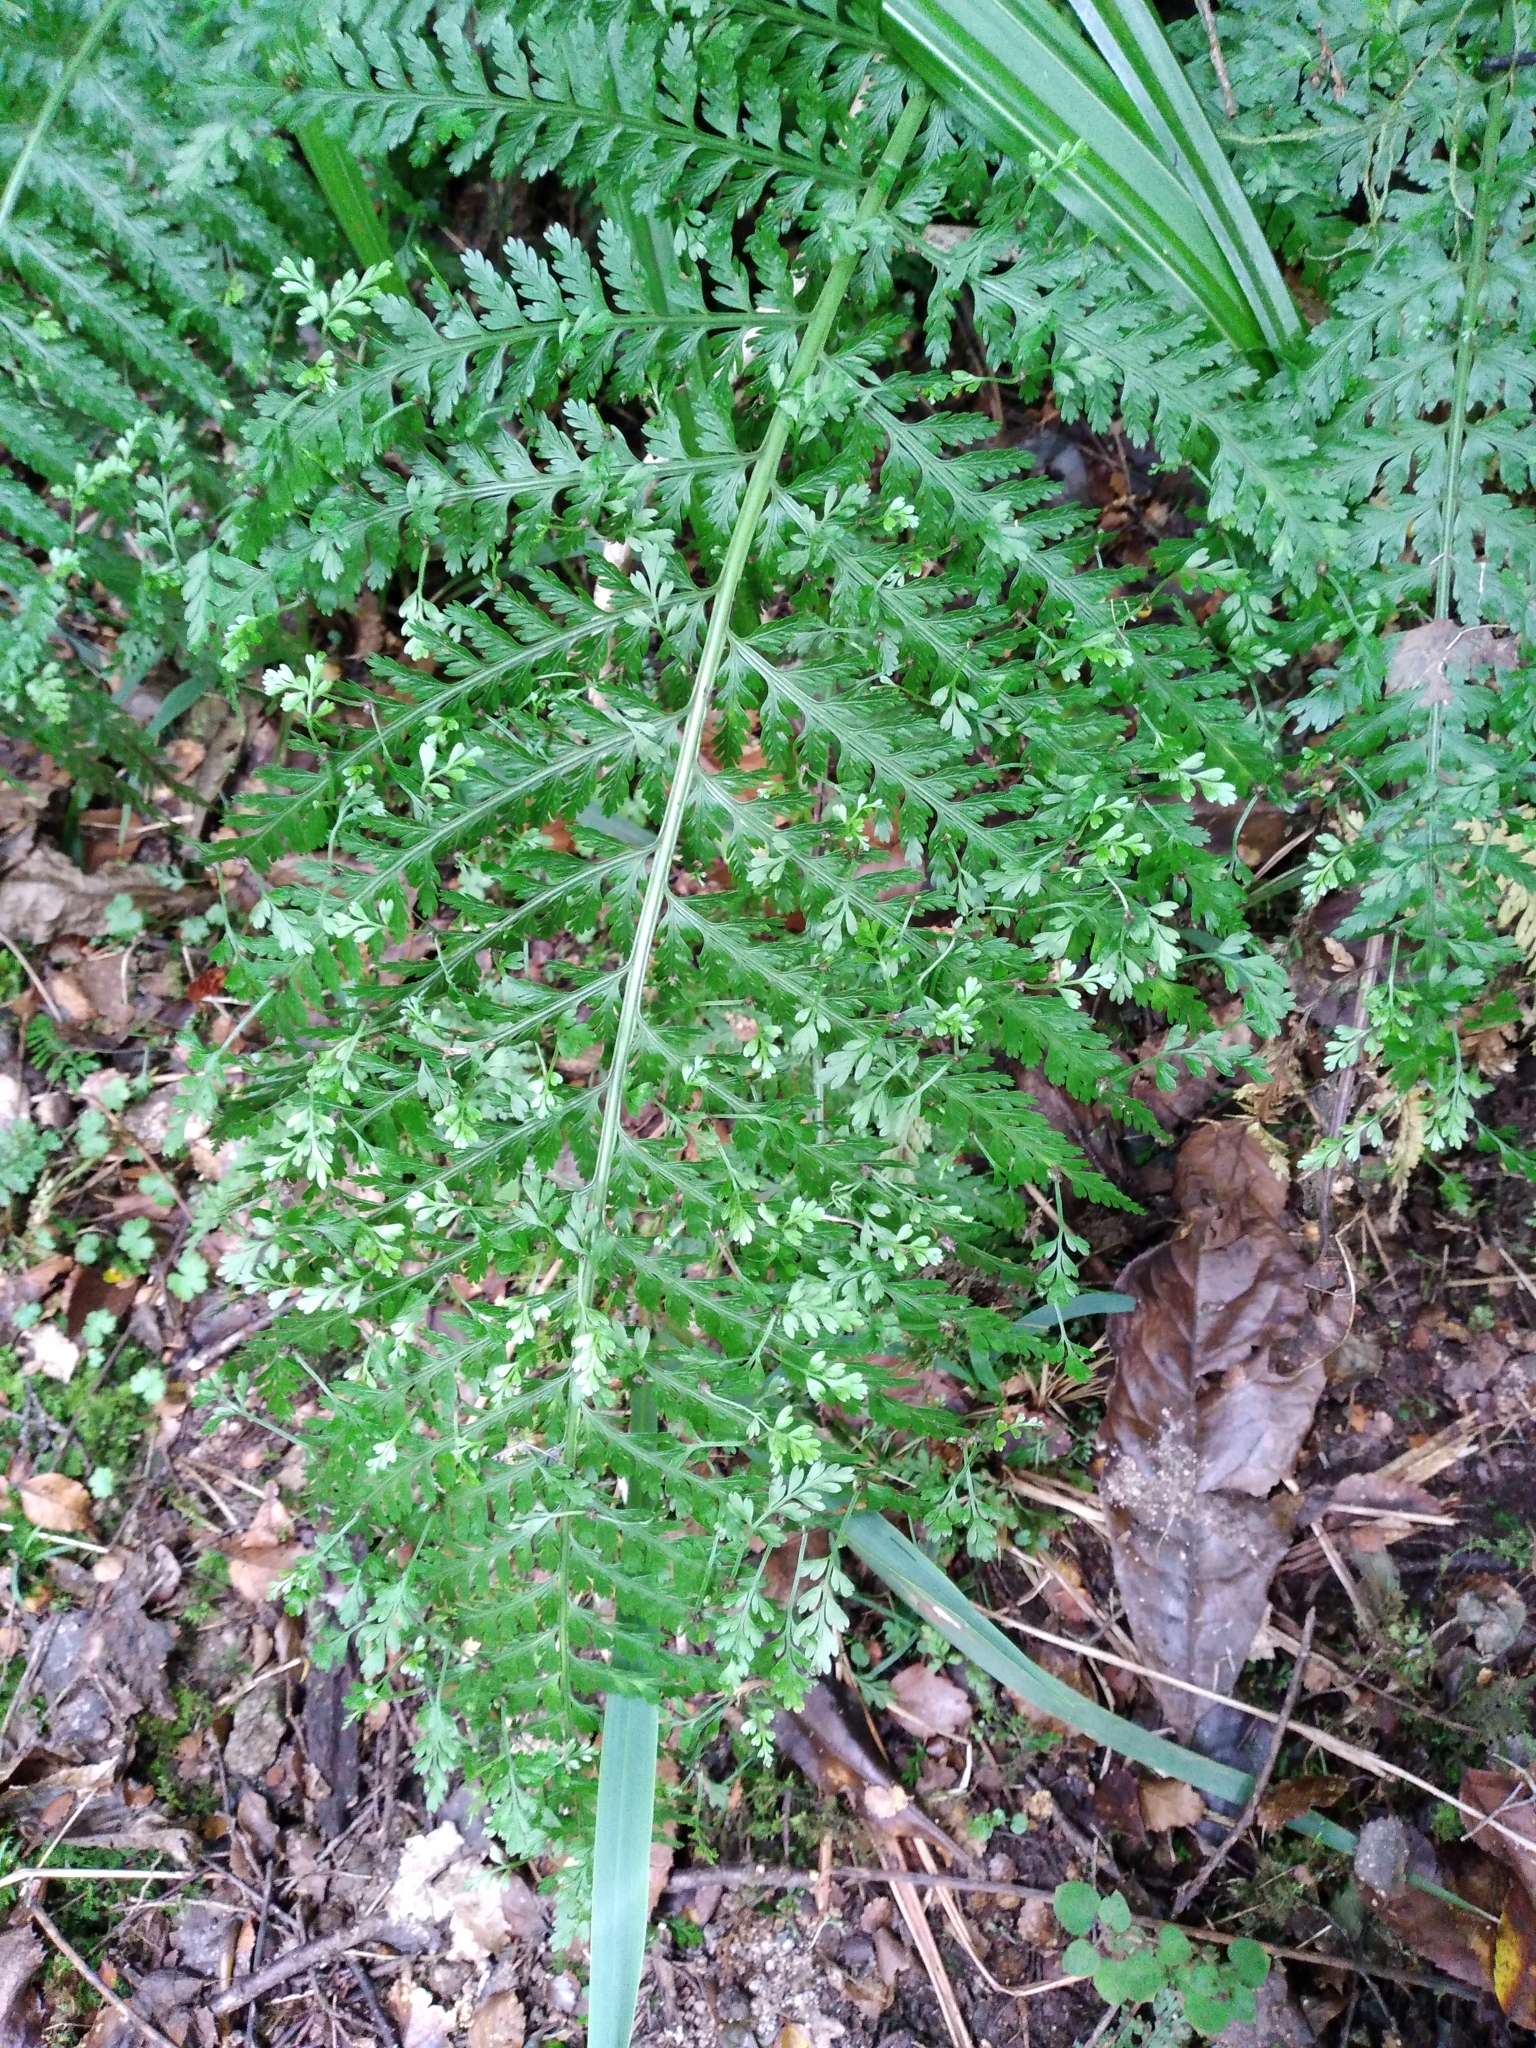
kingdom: Plantae
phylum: Tracheophyta
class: Polypodiopsida
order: Polypodiales
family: Aspleniaceae
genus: Asplenium
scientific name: Asplenium bulbiferum
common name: Mother fern
